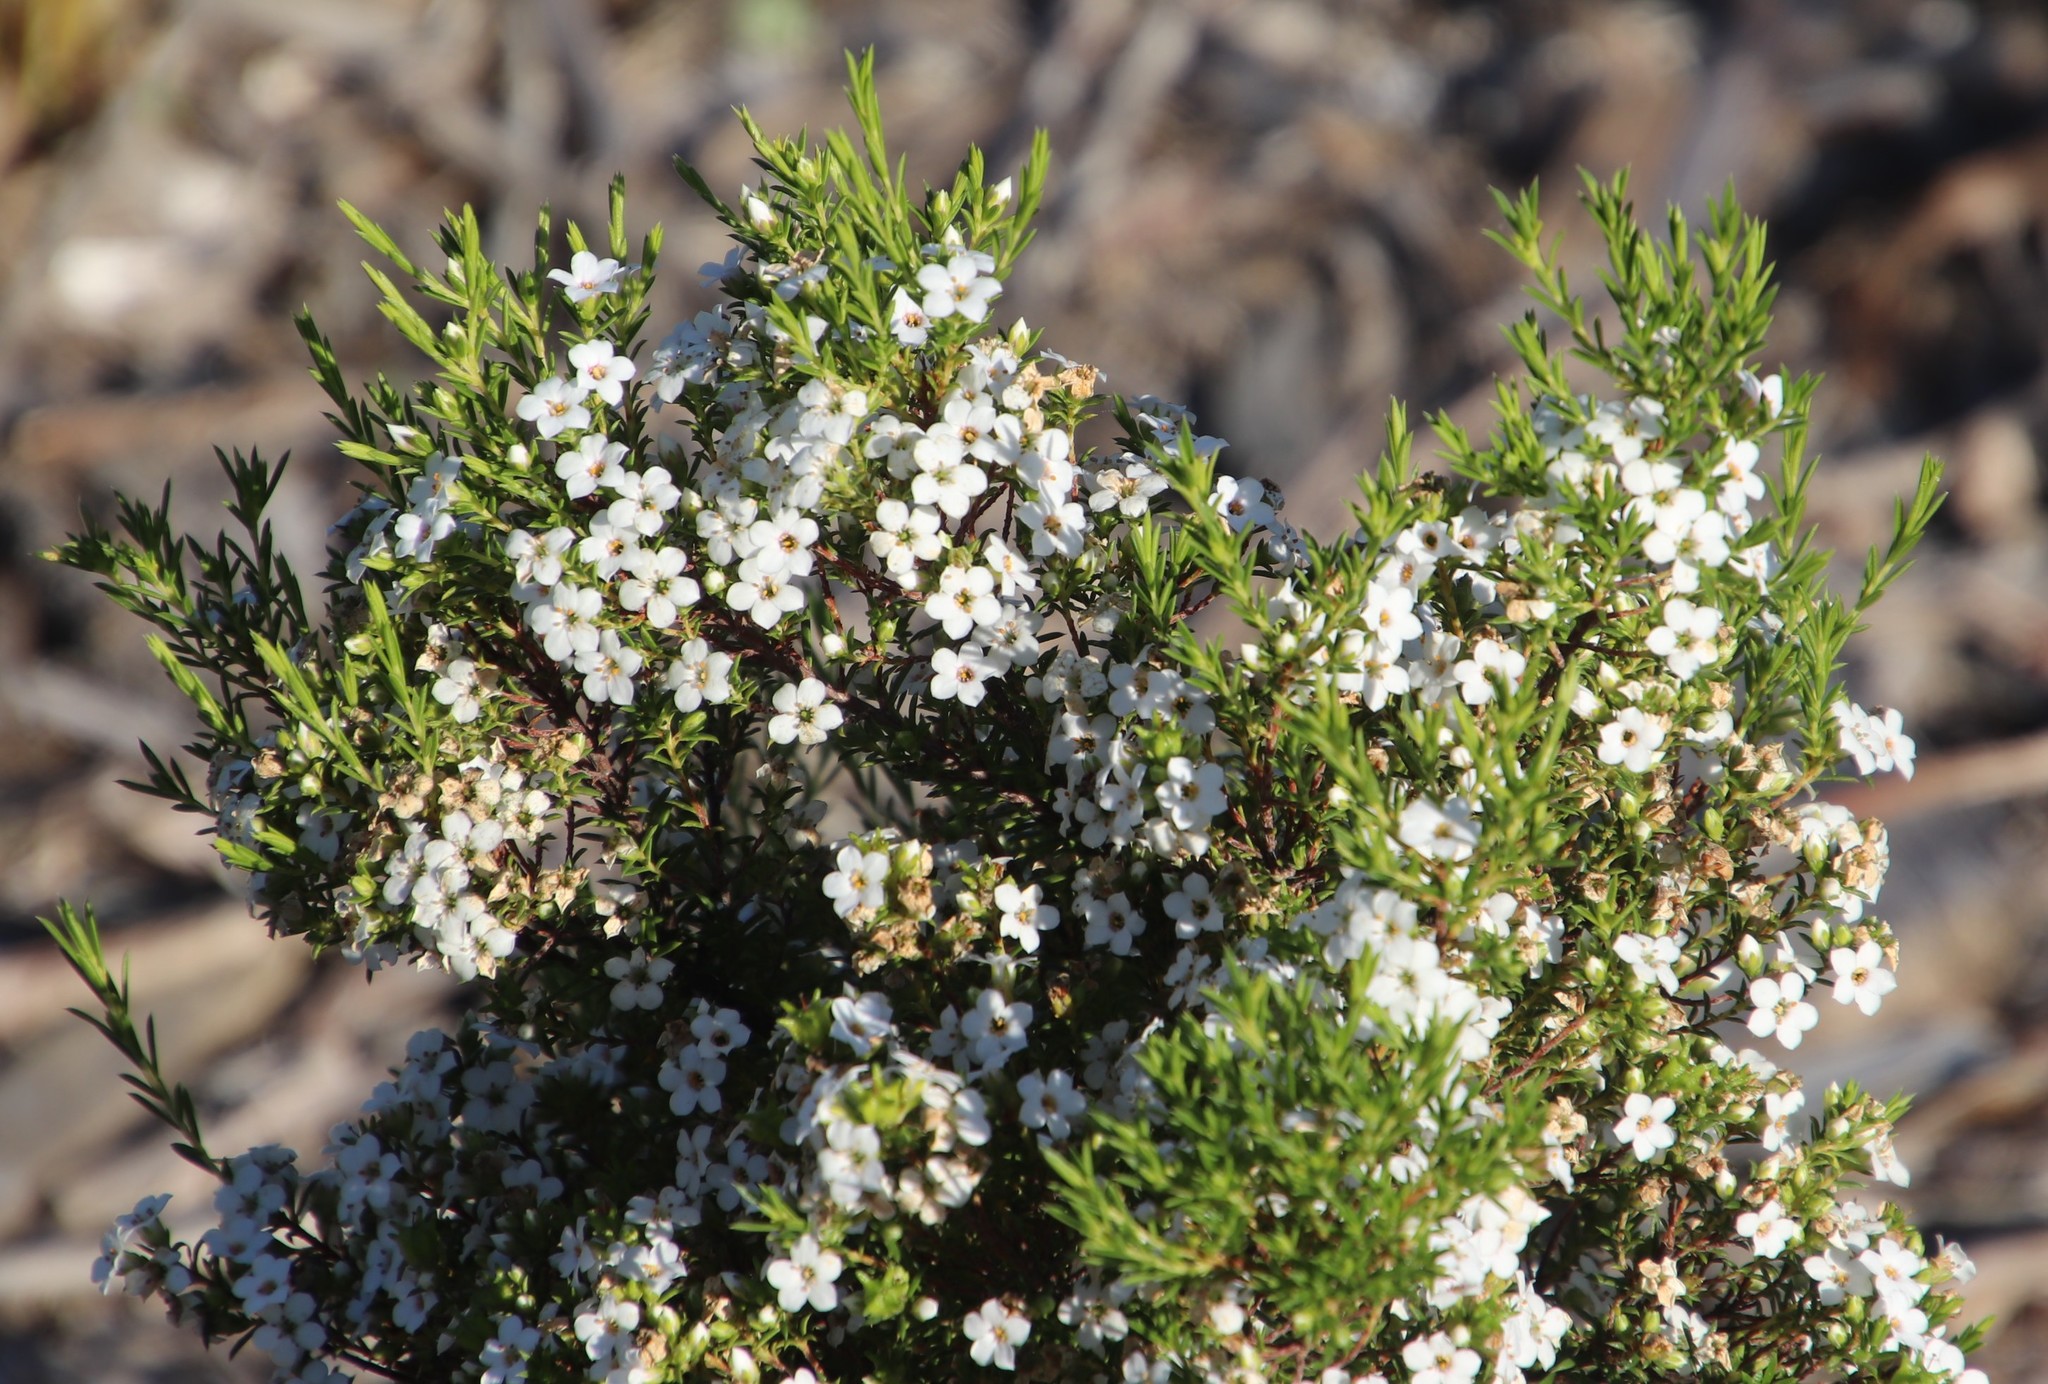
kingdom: Plantae
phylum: Tracheophyta
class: Magnoliopsida
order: Sapindales
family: Rutaceae
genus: Coleonema
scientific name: Coleonema album
